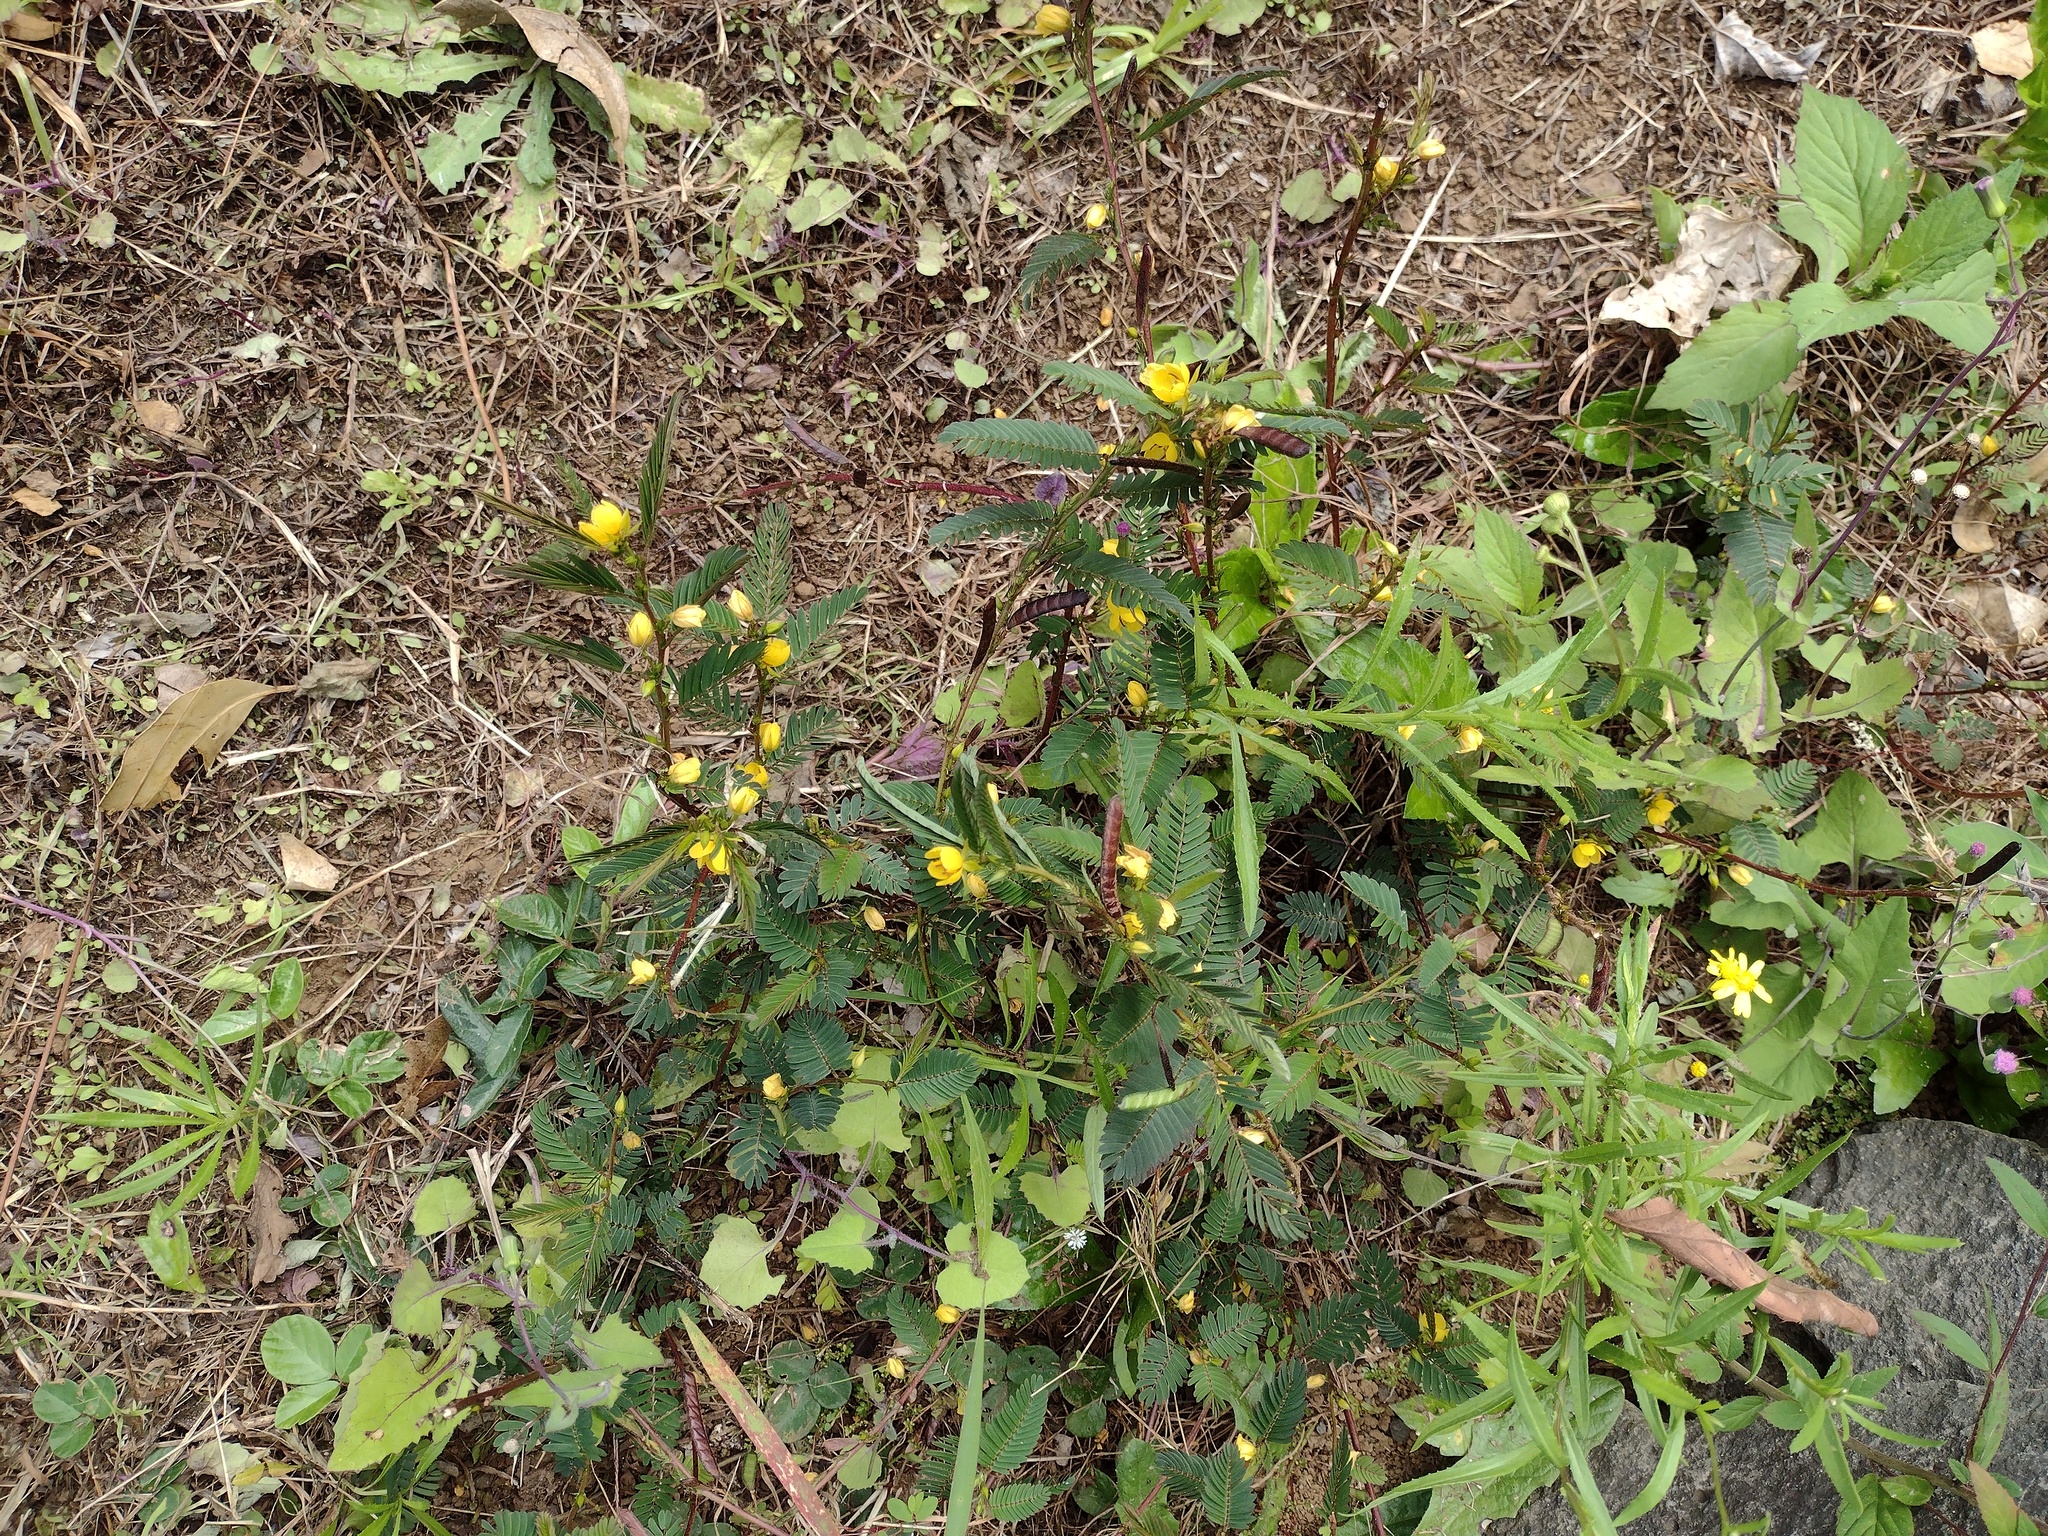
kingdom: Plantae
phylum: Tracheophyta
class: Magnoliopsida
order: Fabales
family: Fabaceae
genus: Chamaecrista
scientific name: Chamaecrista nictitans
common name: Sensitive cassia
